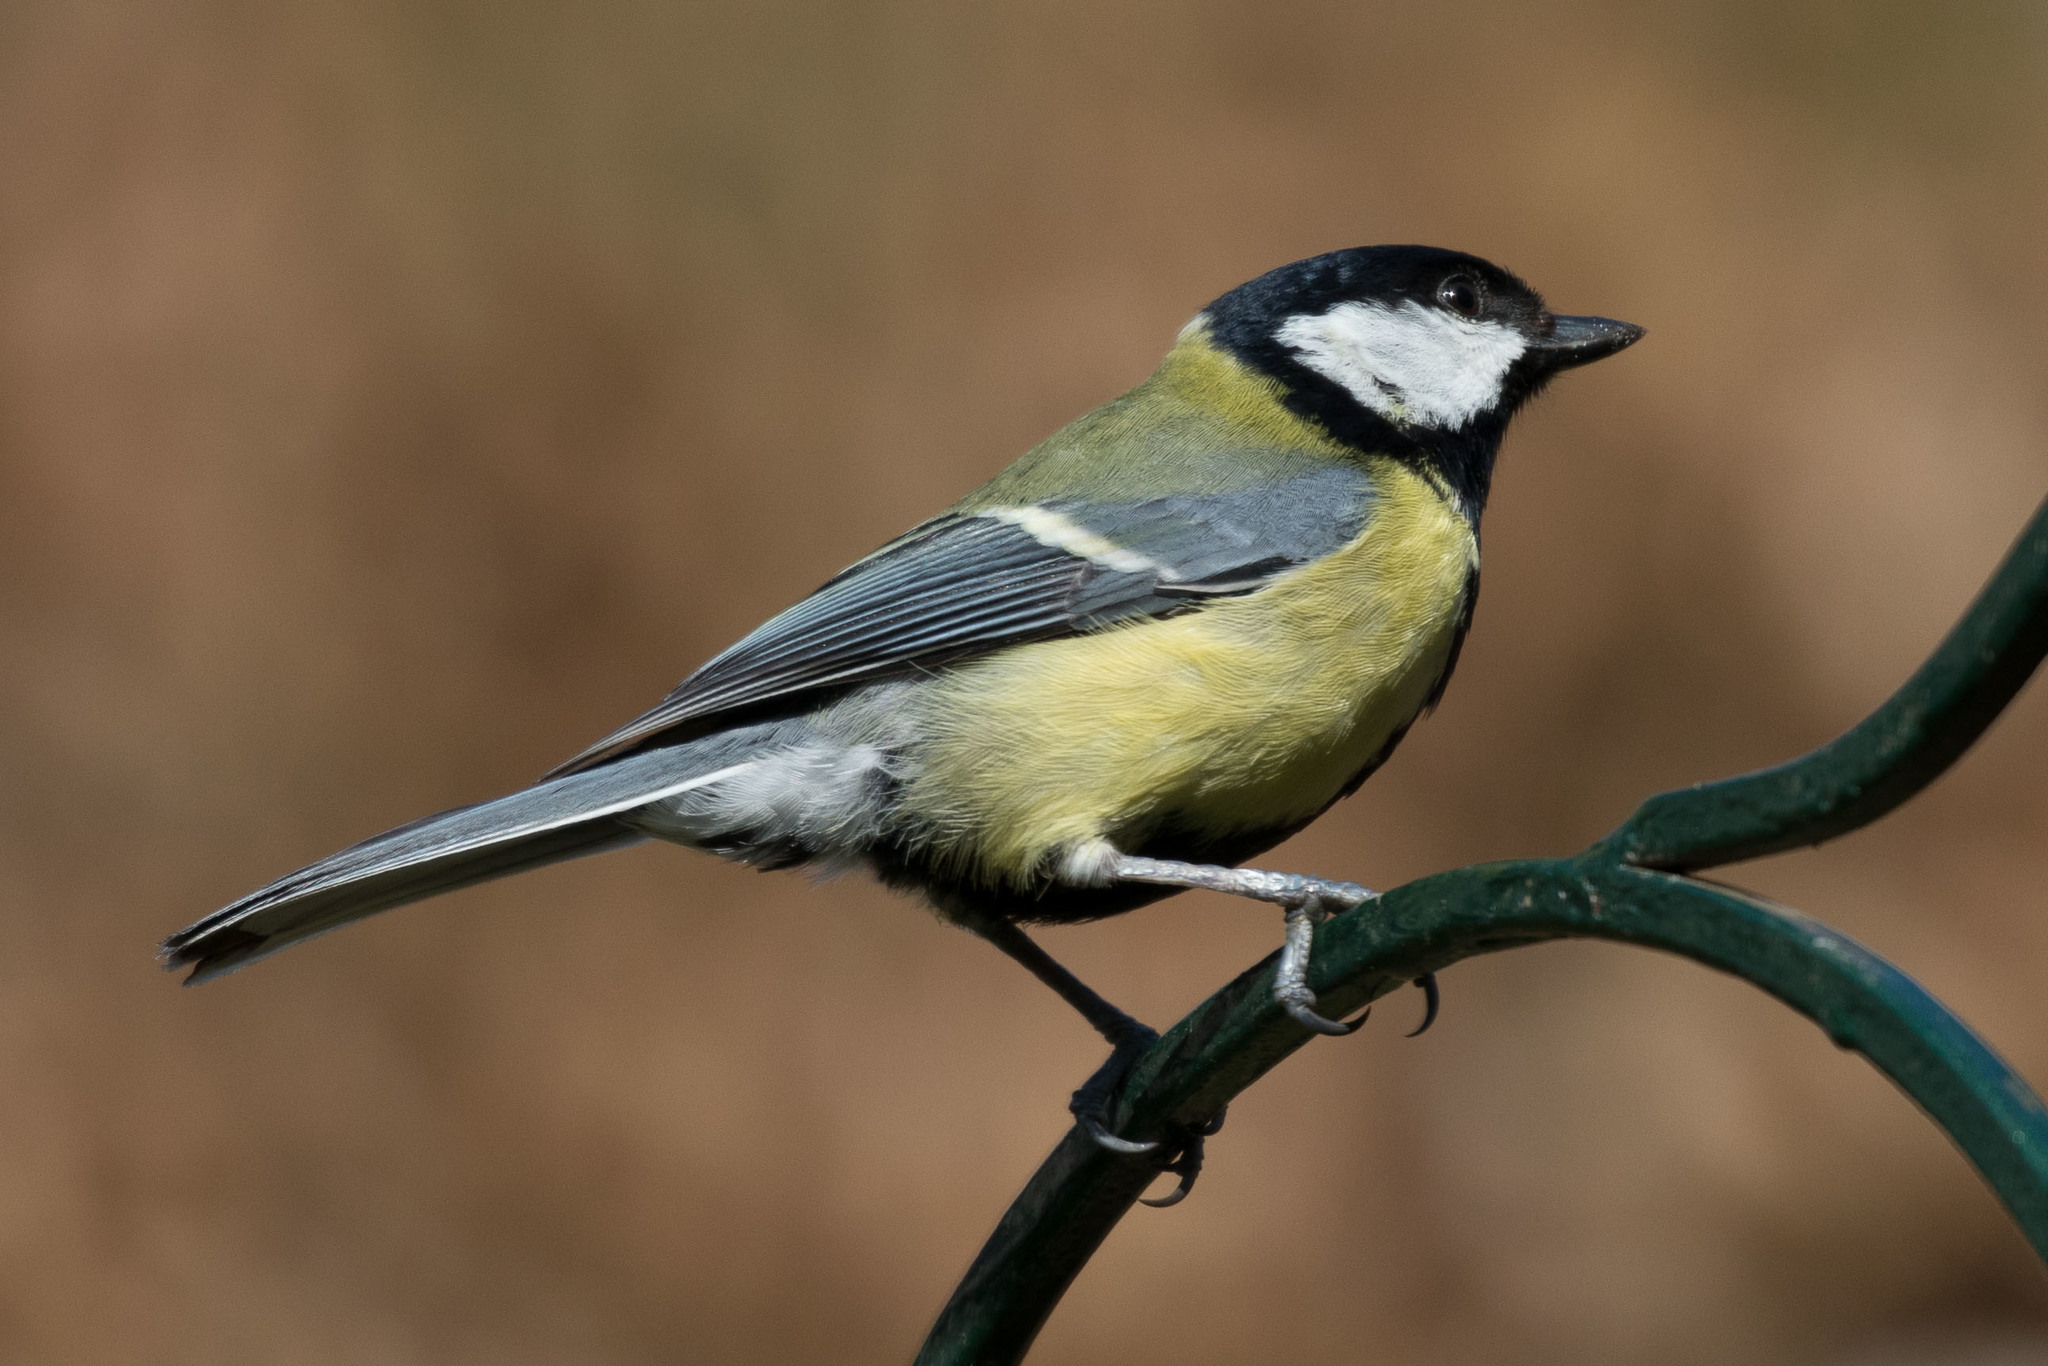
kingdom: Animalia
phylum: Chordata
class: Aves
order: Passeriformes
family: Paridae
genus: Parus
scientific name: Parus major
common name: Great tit
